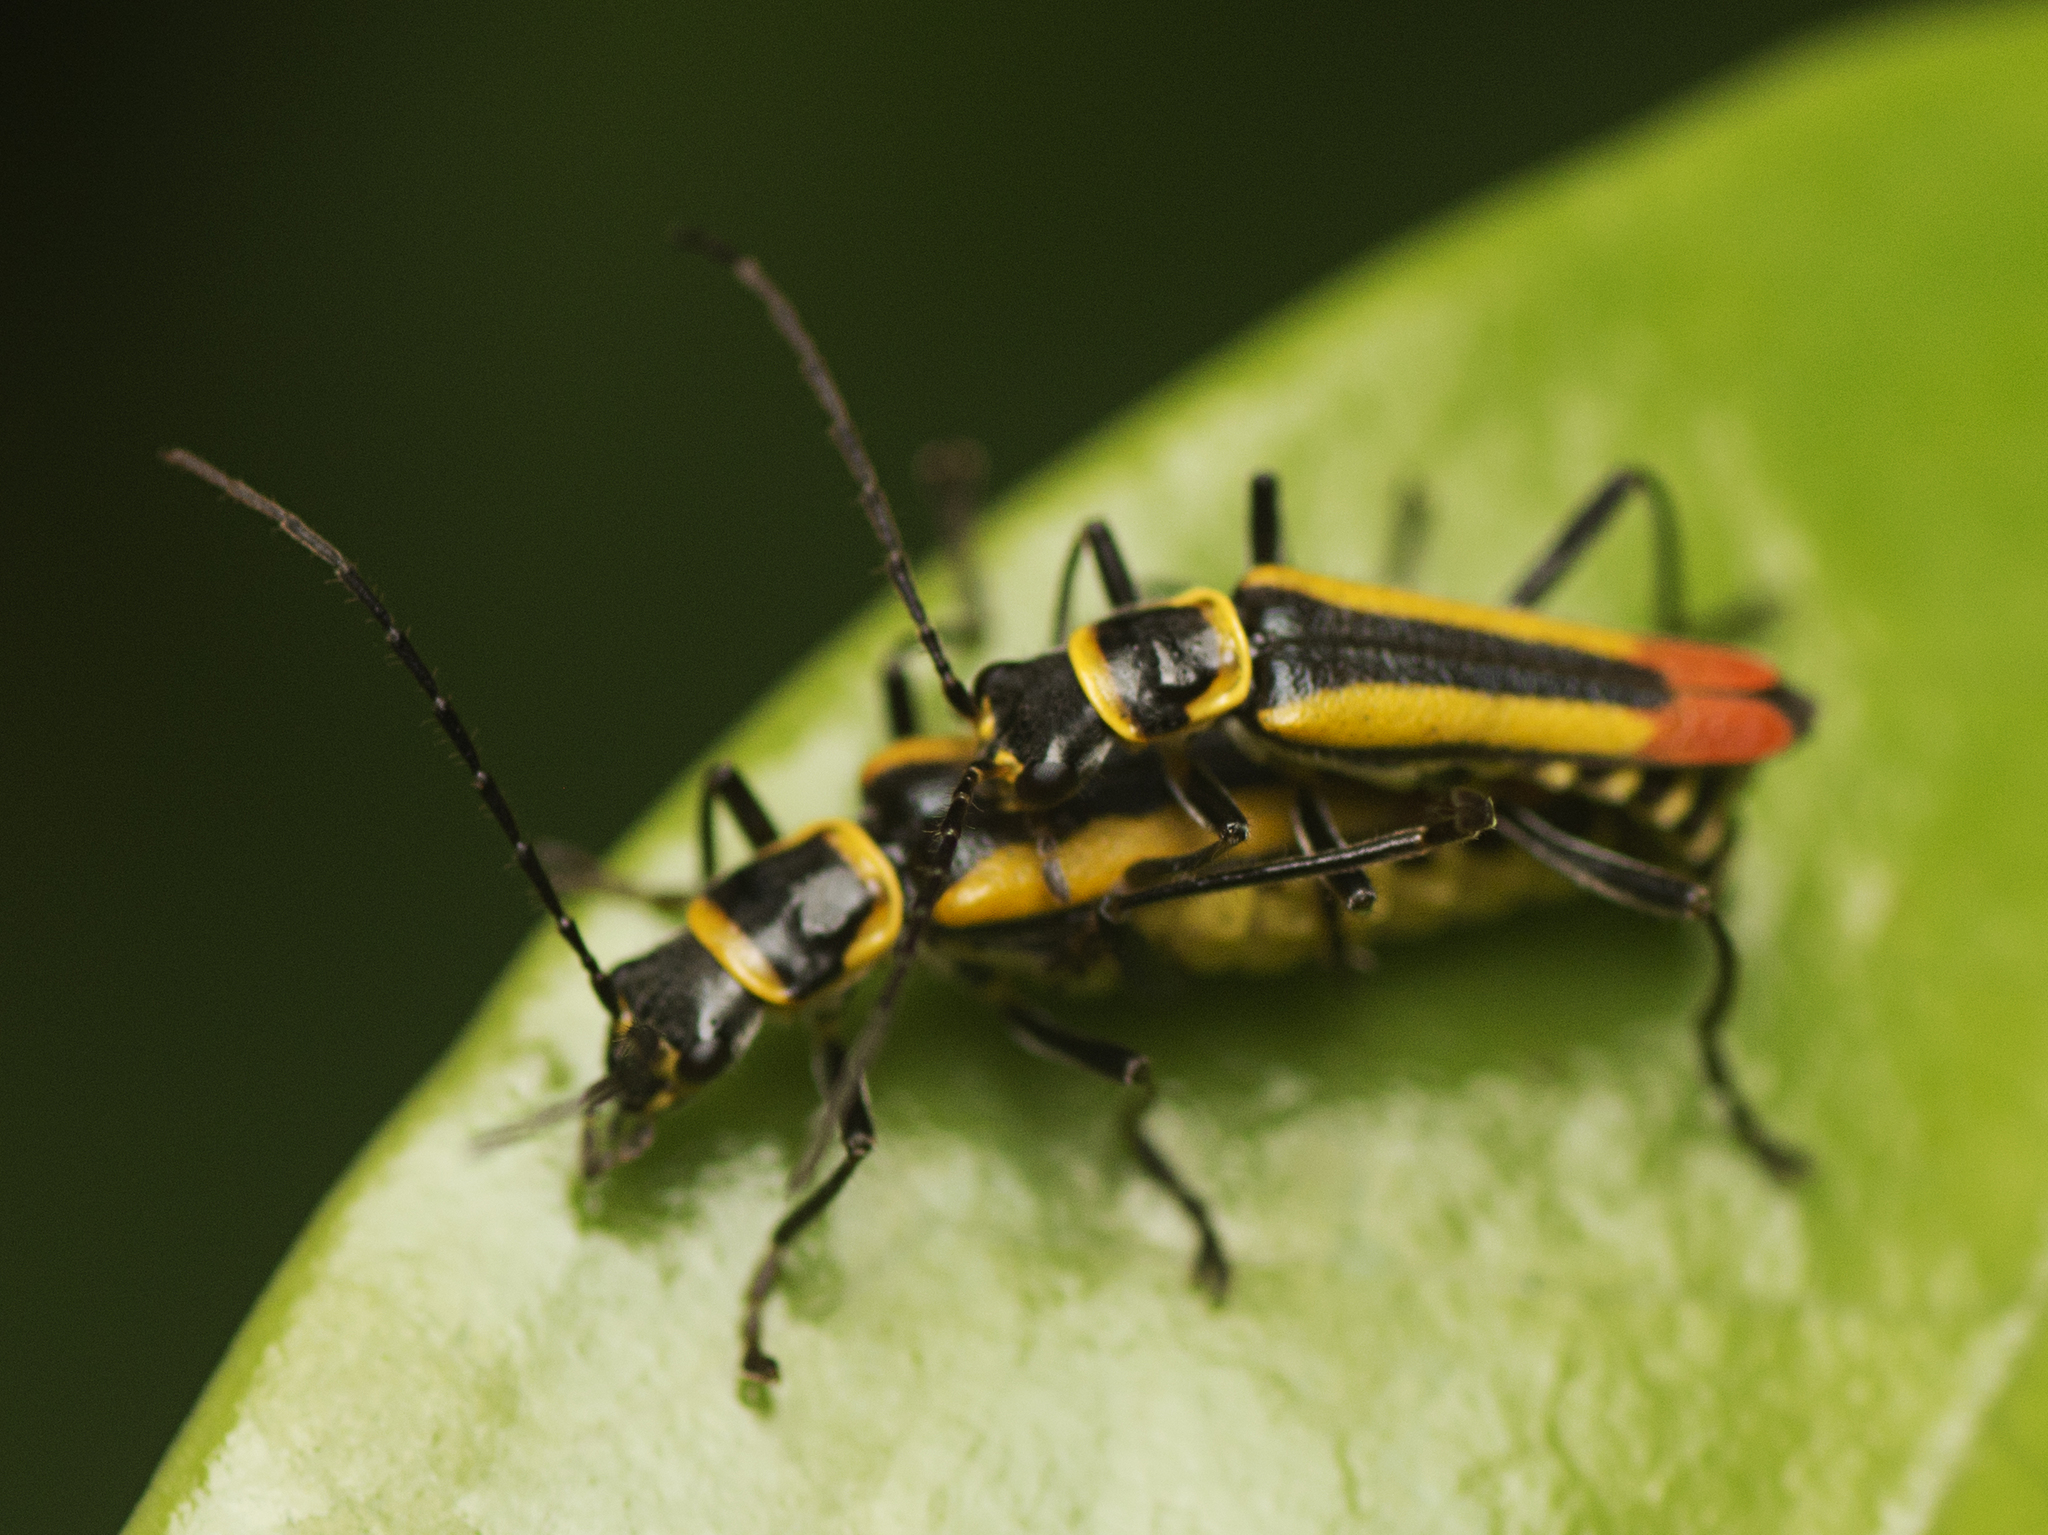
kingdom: Animalia
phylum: Arthropoda
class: Insecta
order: Coleoptera
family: Cantharidae
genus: Chauliognathus
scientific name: Chauliognathus
